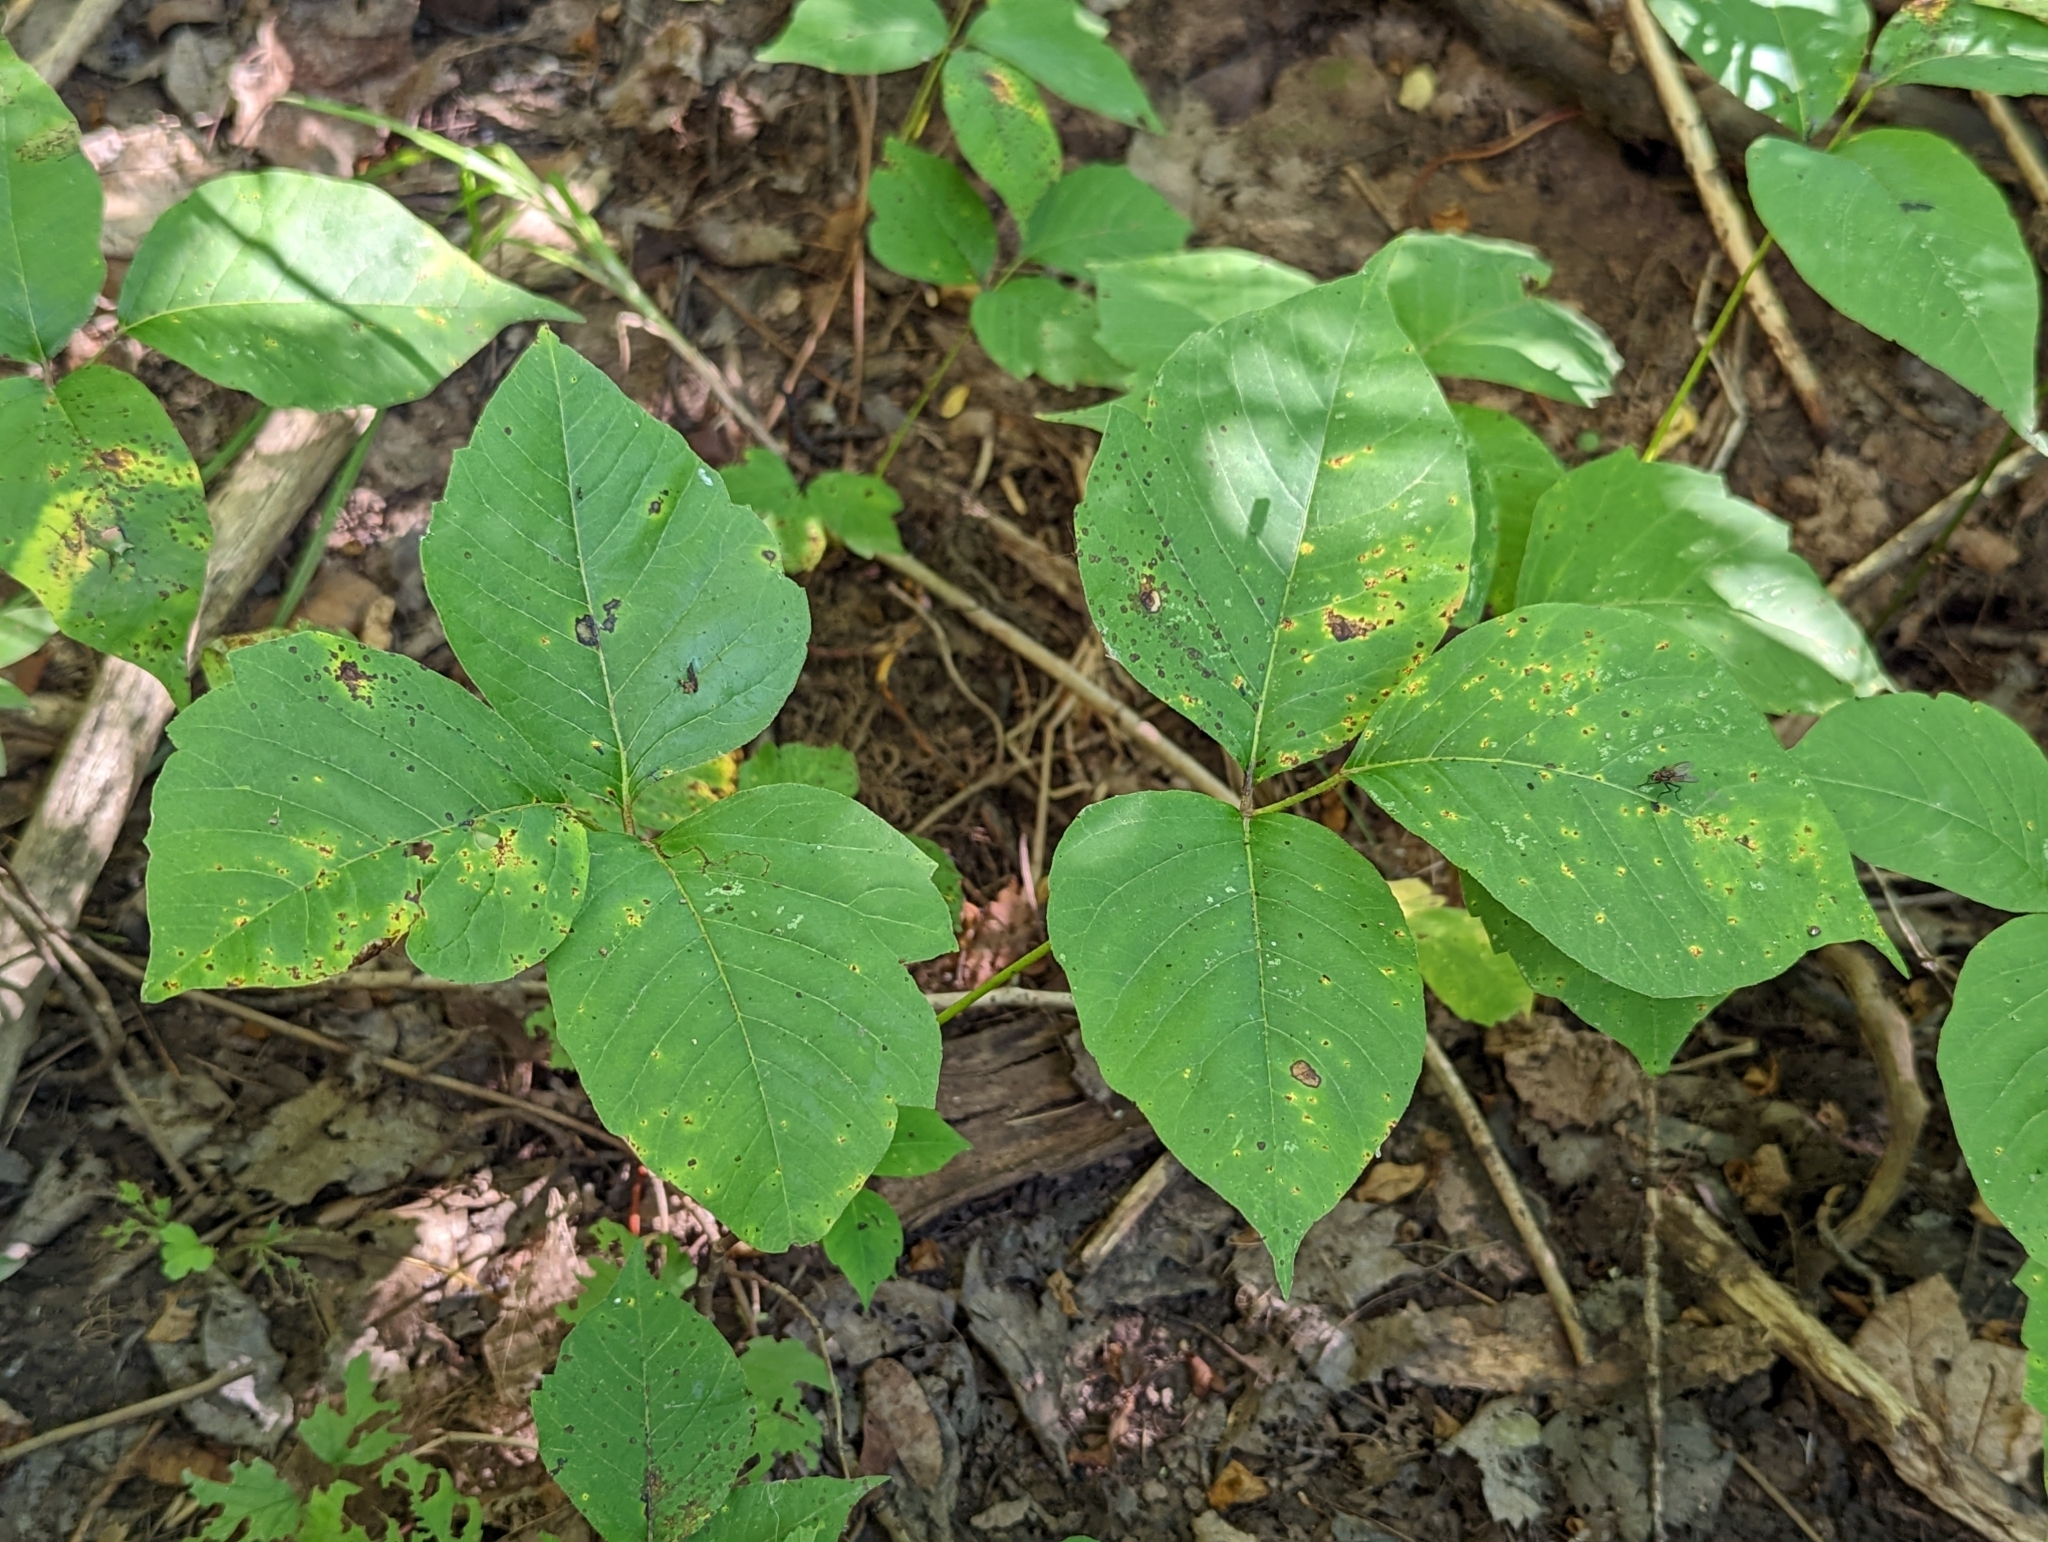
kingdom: Plantae
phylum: Tracheophyta
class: Magnoliopsida
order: Sapindales
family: Anacardiaceae
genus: Toxicodendron
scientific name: Toxicodendron rydbergii
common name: Rydberg's poison-ivy
